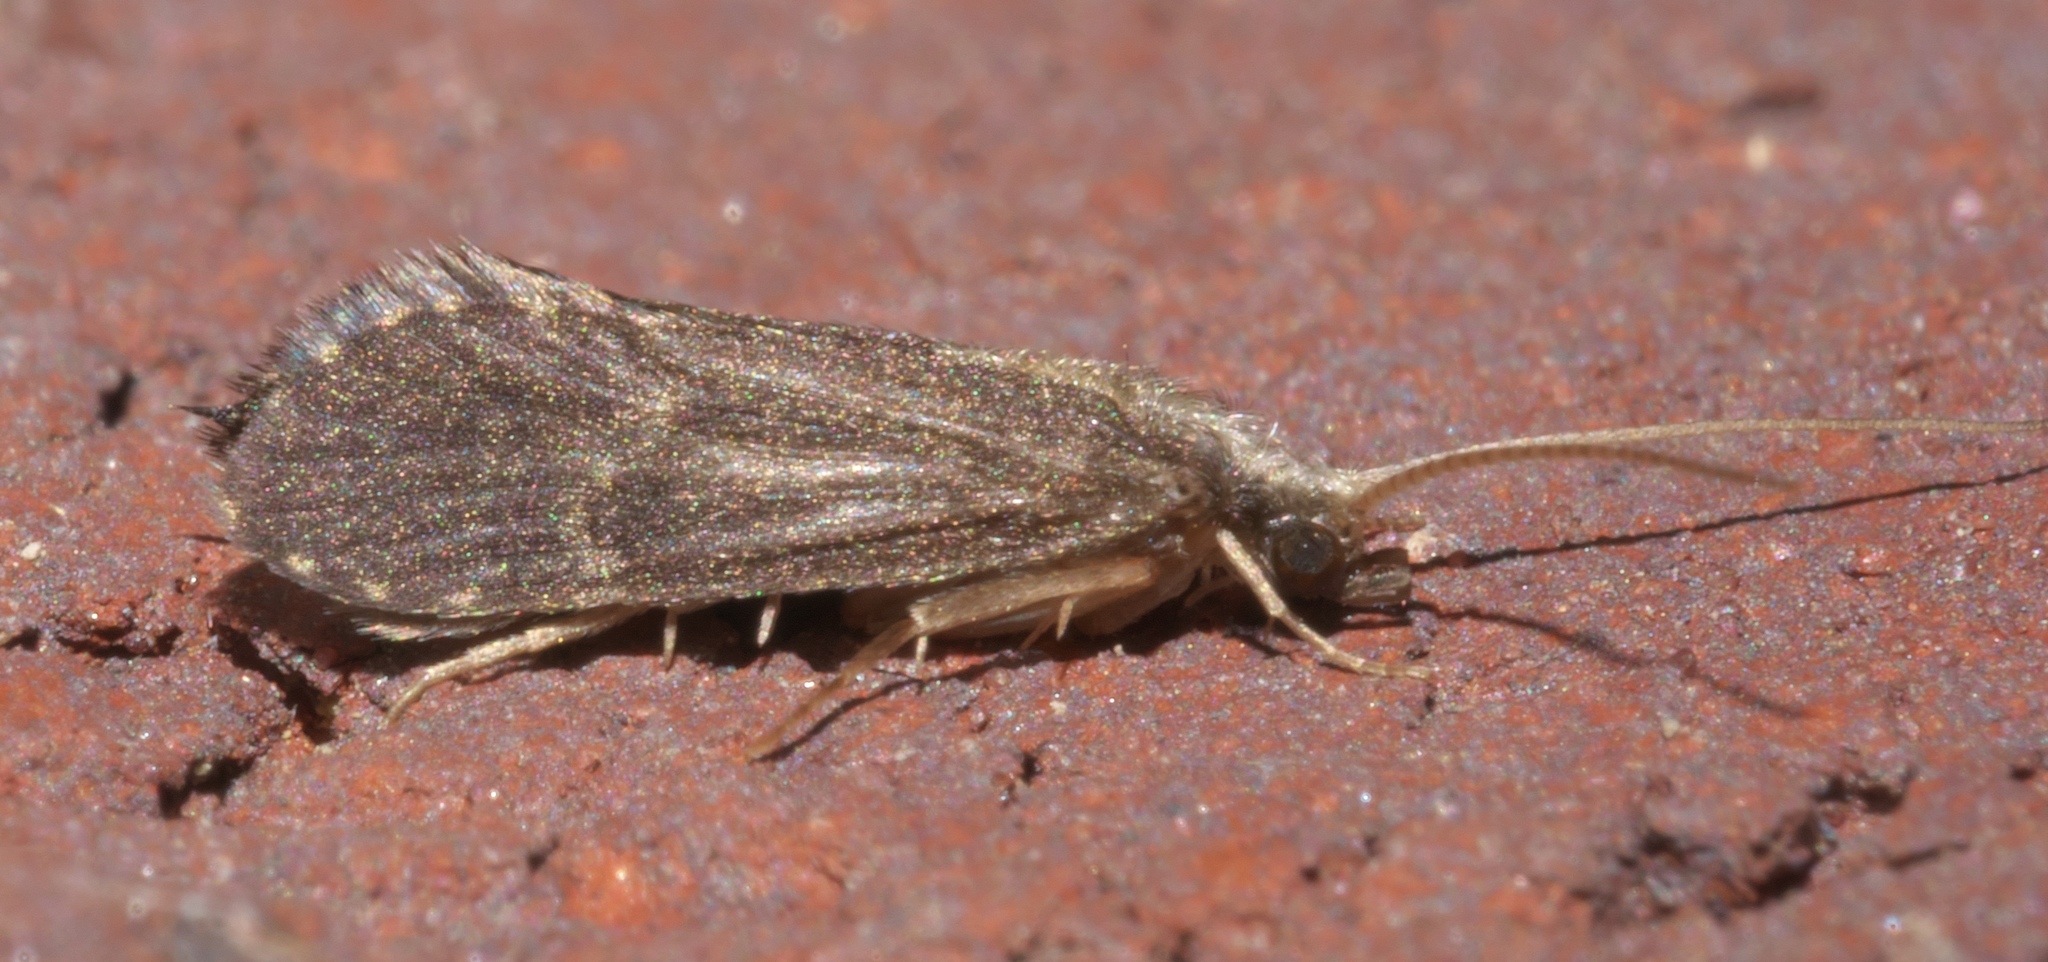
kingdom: Animalia
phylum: Arthropoda
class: Insecta
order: Trichoptera
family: Polycentropodidae
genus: Cyrnellus
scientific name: Cyrnellus fraternus
